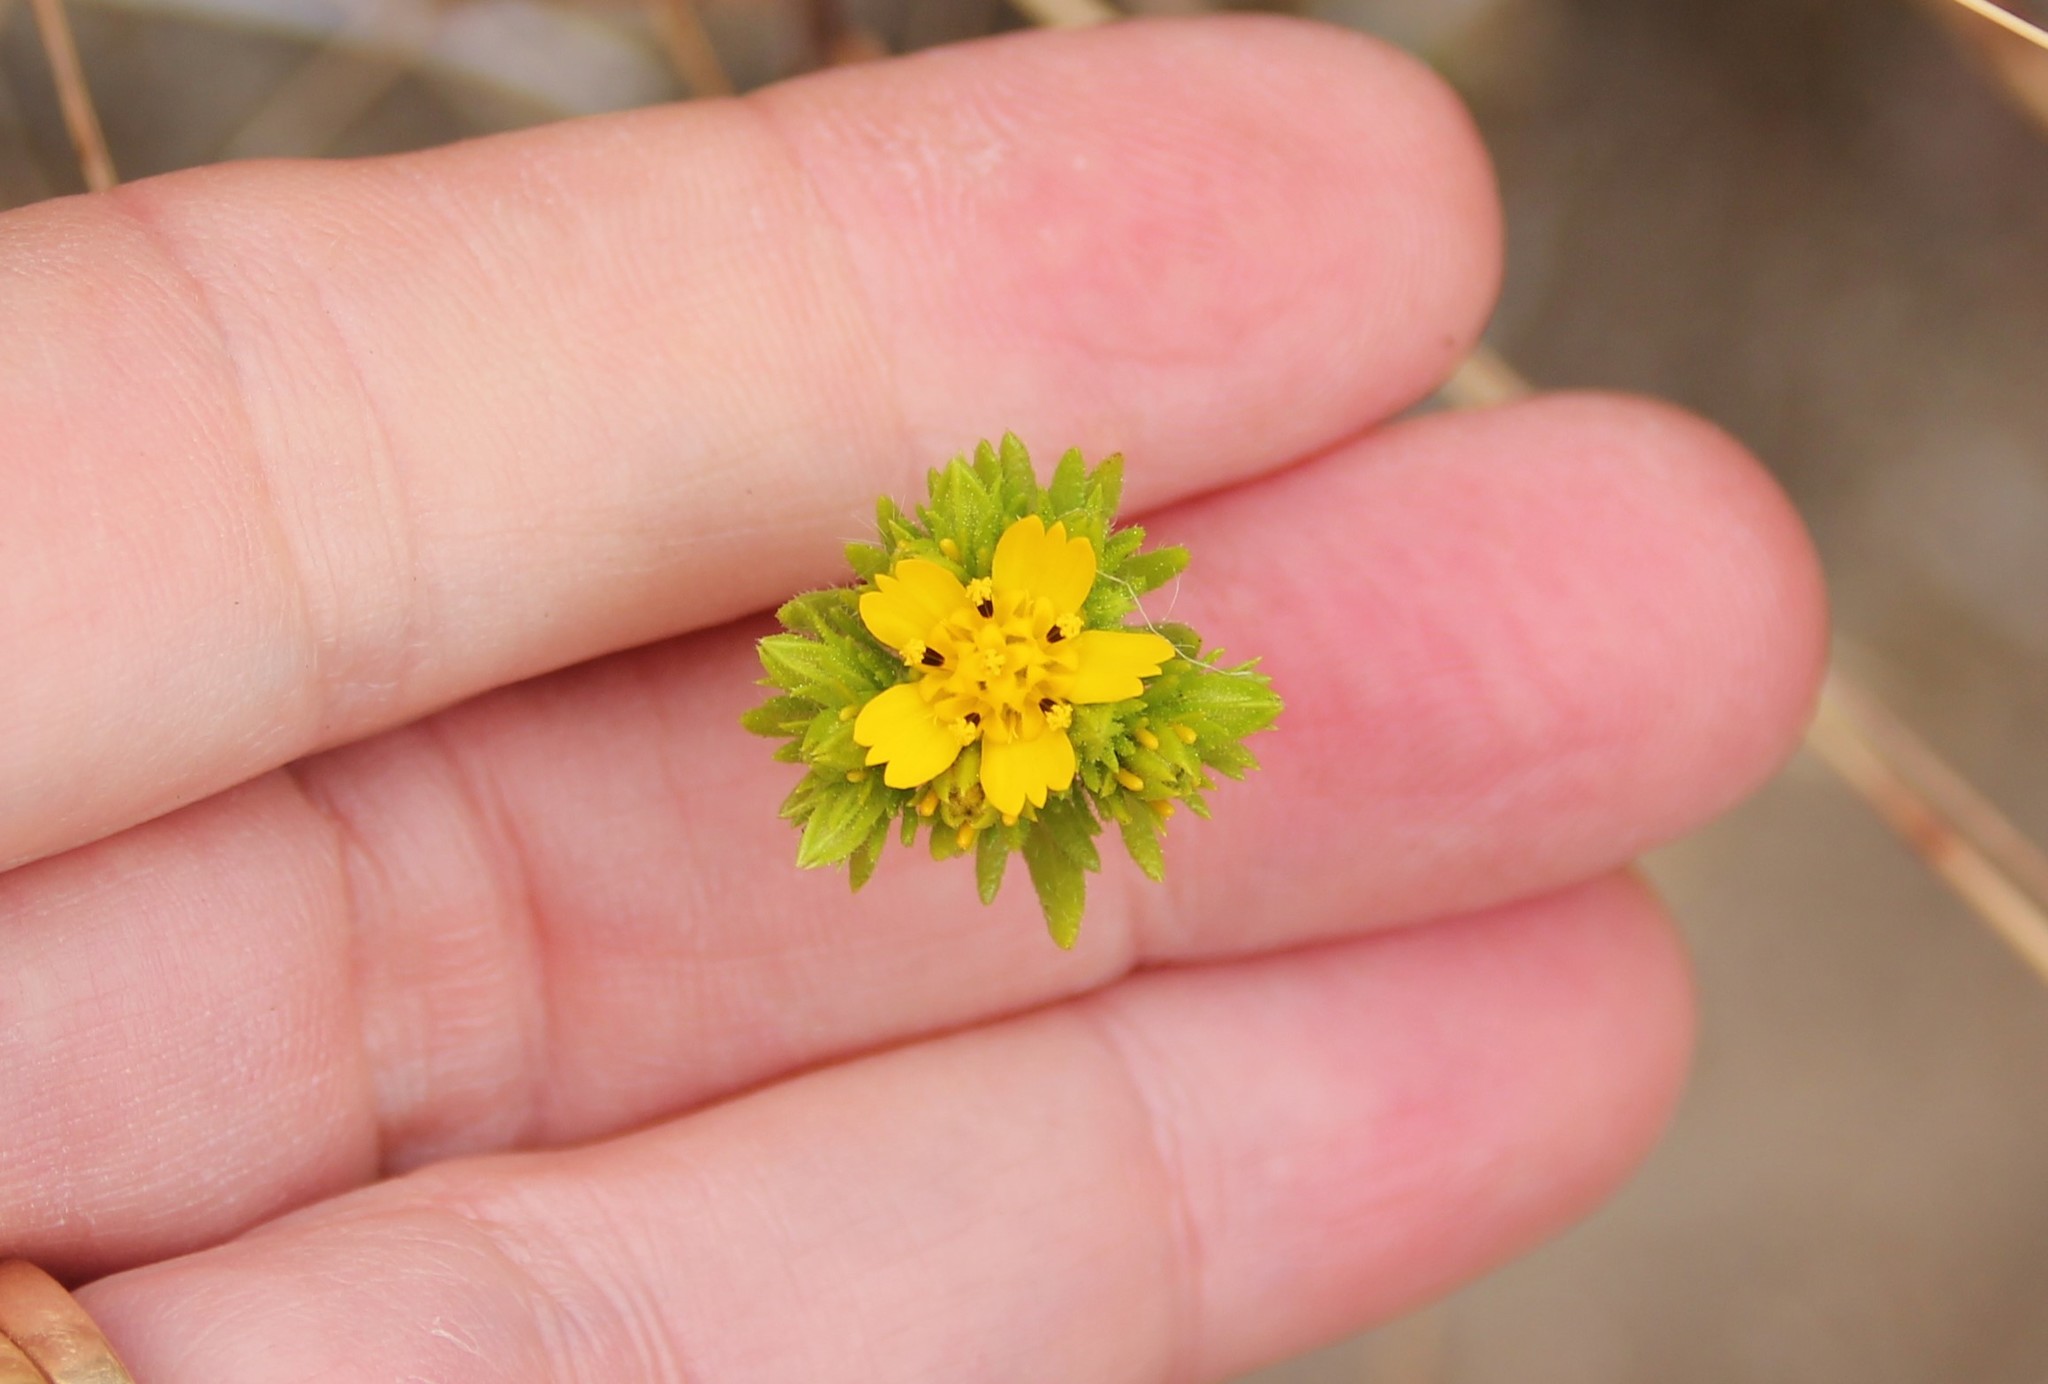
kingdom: Plantae
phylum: Tracheophyta
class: Magnoliopsida
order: Asterales
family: Asteraceae
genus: Deinandra
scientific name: Deinandra fasciculata
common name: Clustered tarweed
